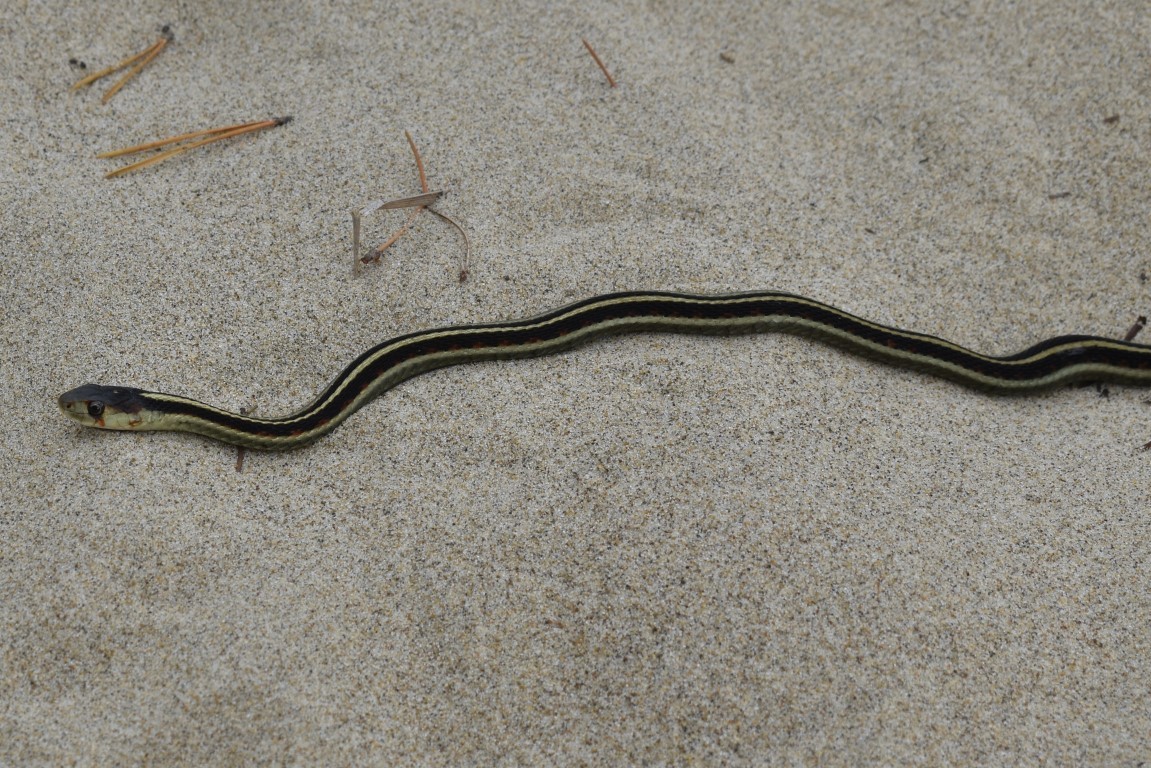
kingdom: Animalia
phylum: Chordata
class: Squamata
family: Colubridae
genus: Thamnophis
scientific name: Thamnophis sirtalis
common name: Common garter snake
